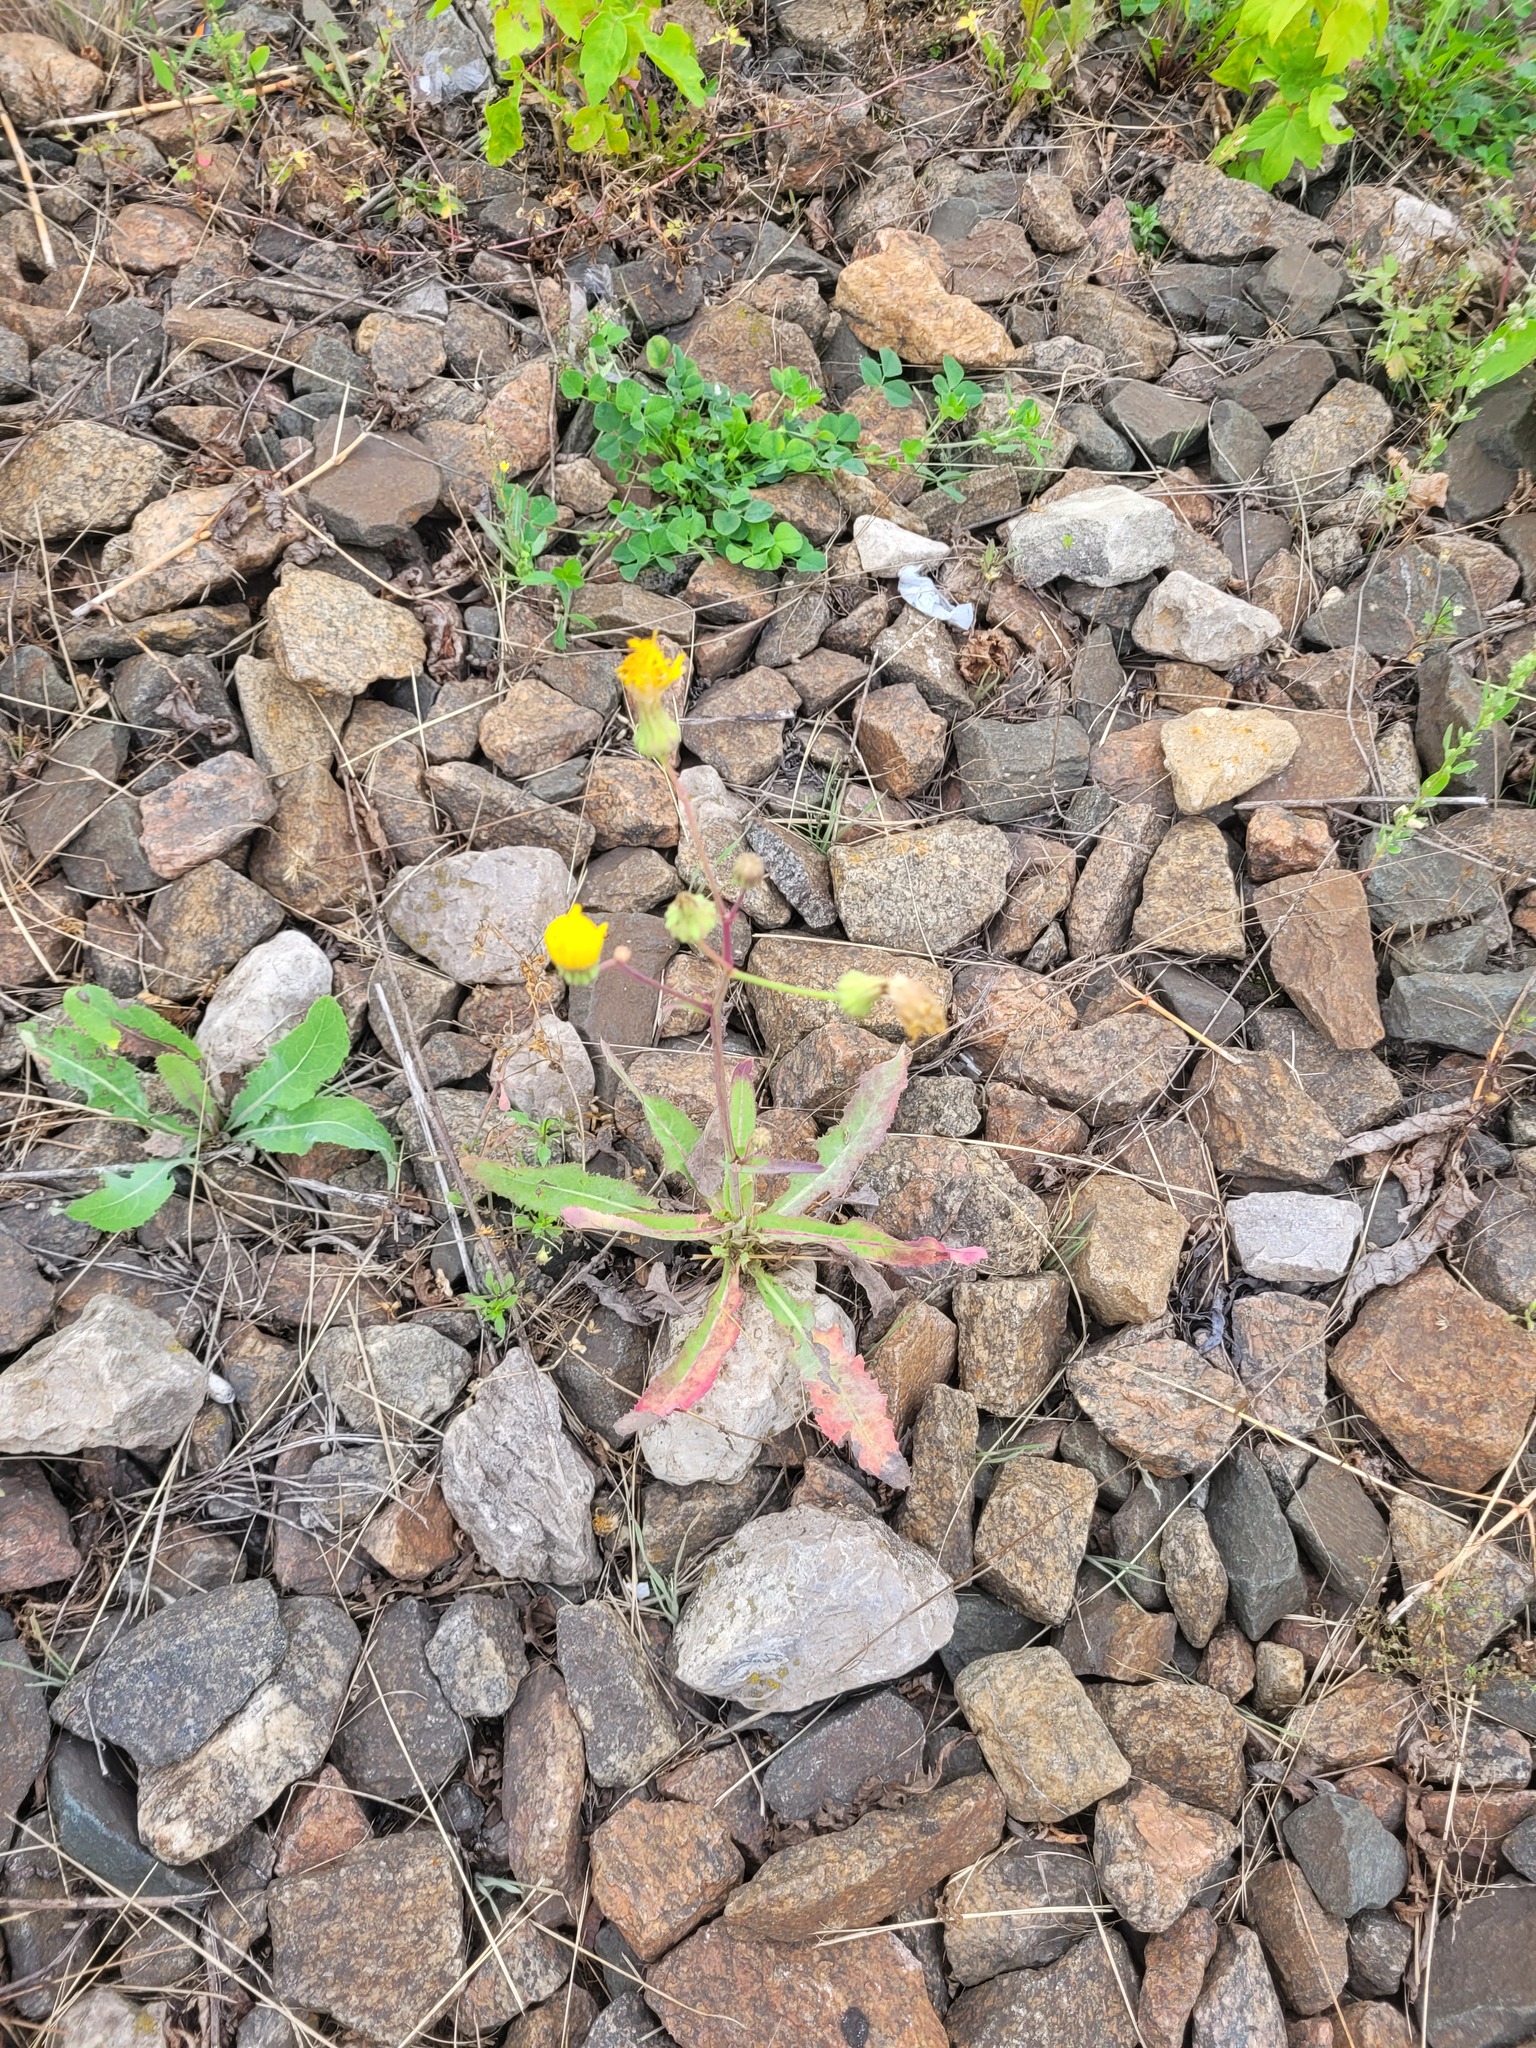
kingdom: Plantae
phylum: Tracheophyta
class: Magnoliopsida
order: Asterales
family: Asteraceae
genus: Sonchus
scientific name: Sonchus arvensis
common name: Perennial sow-thistle
